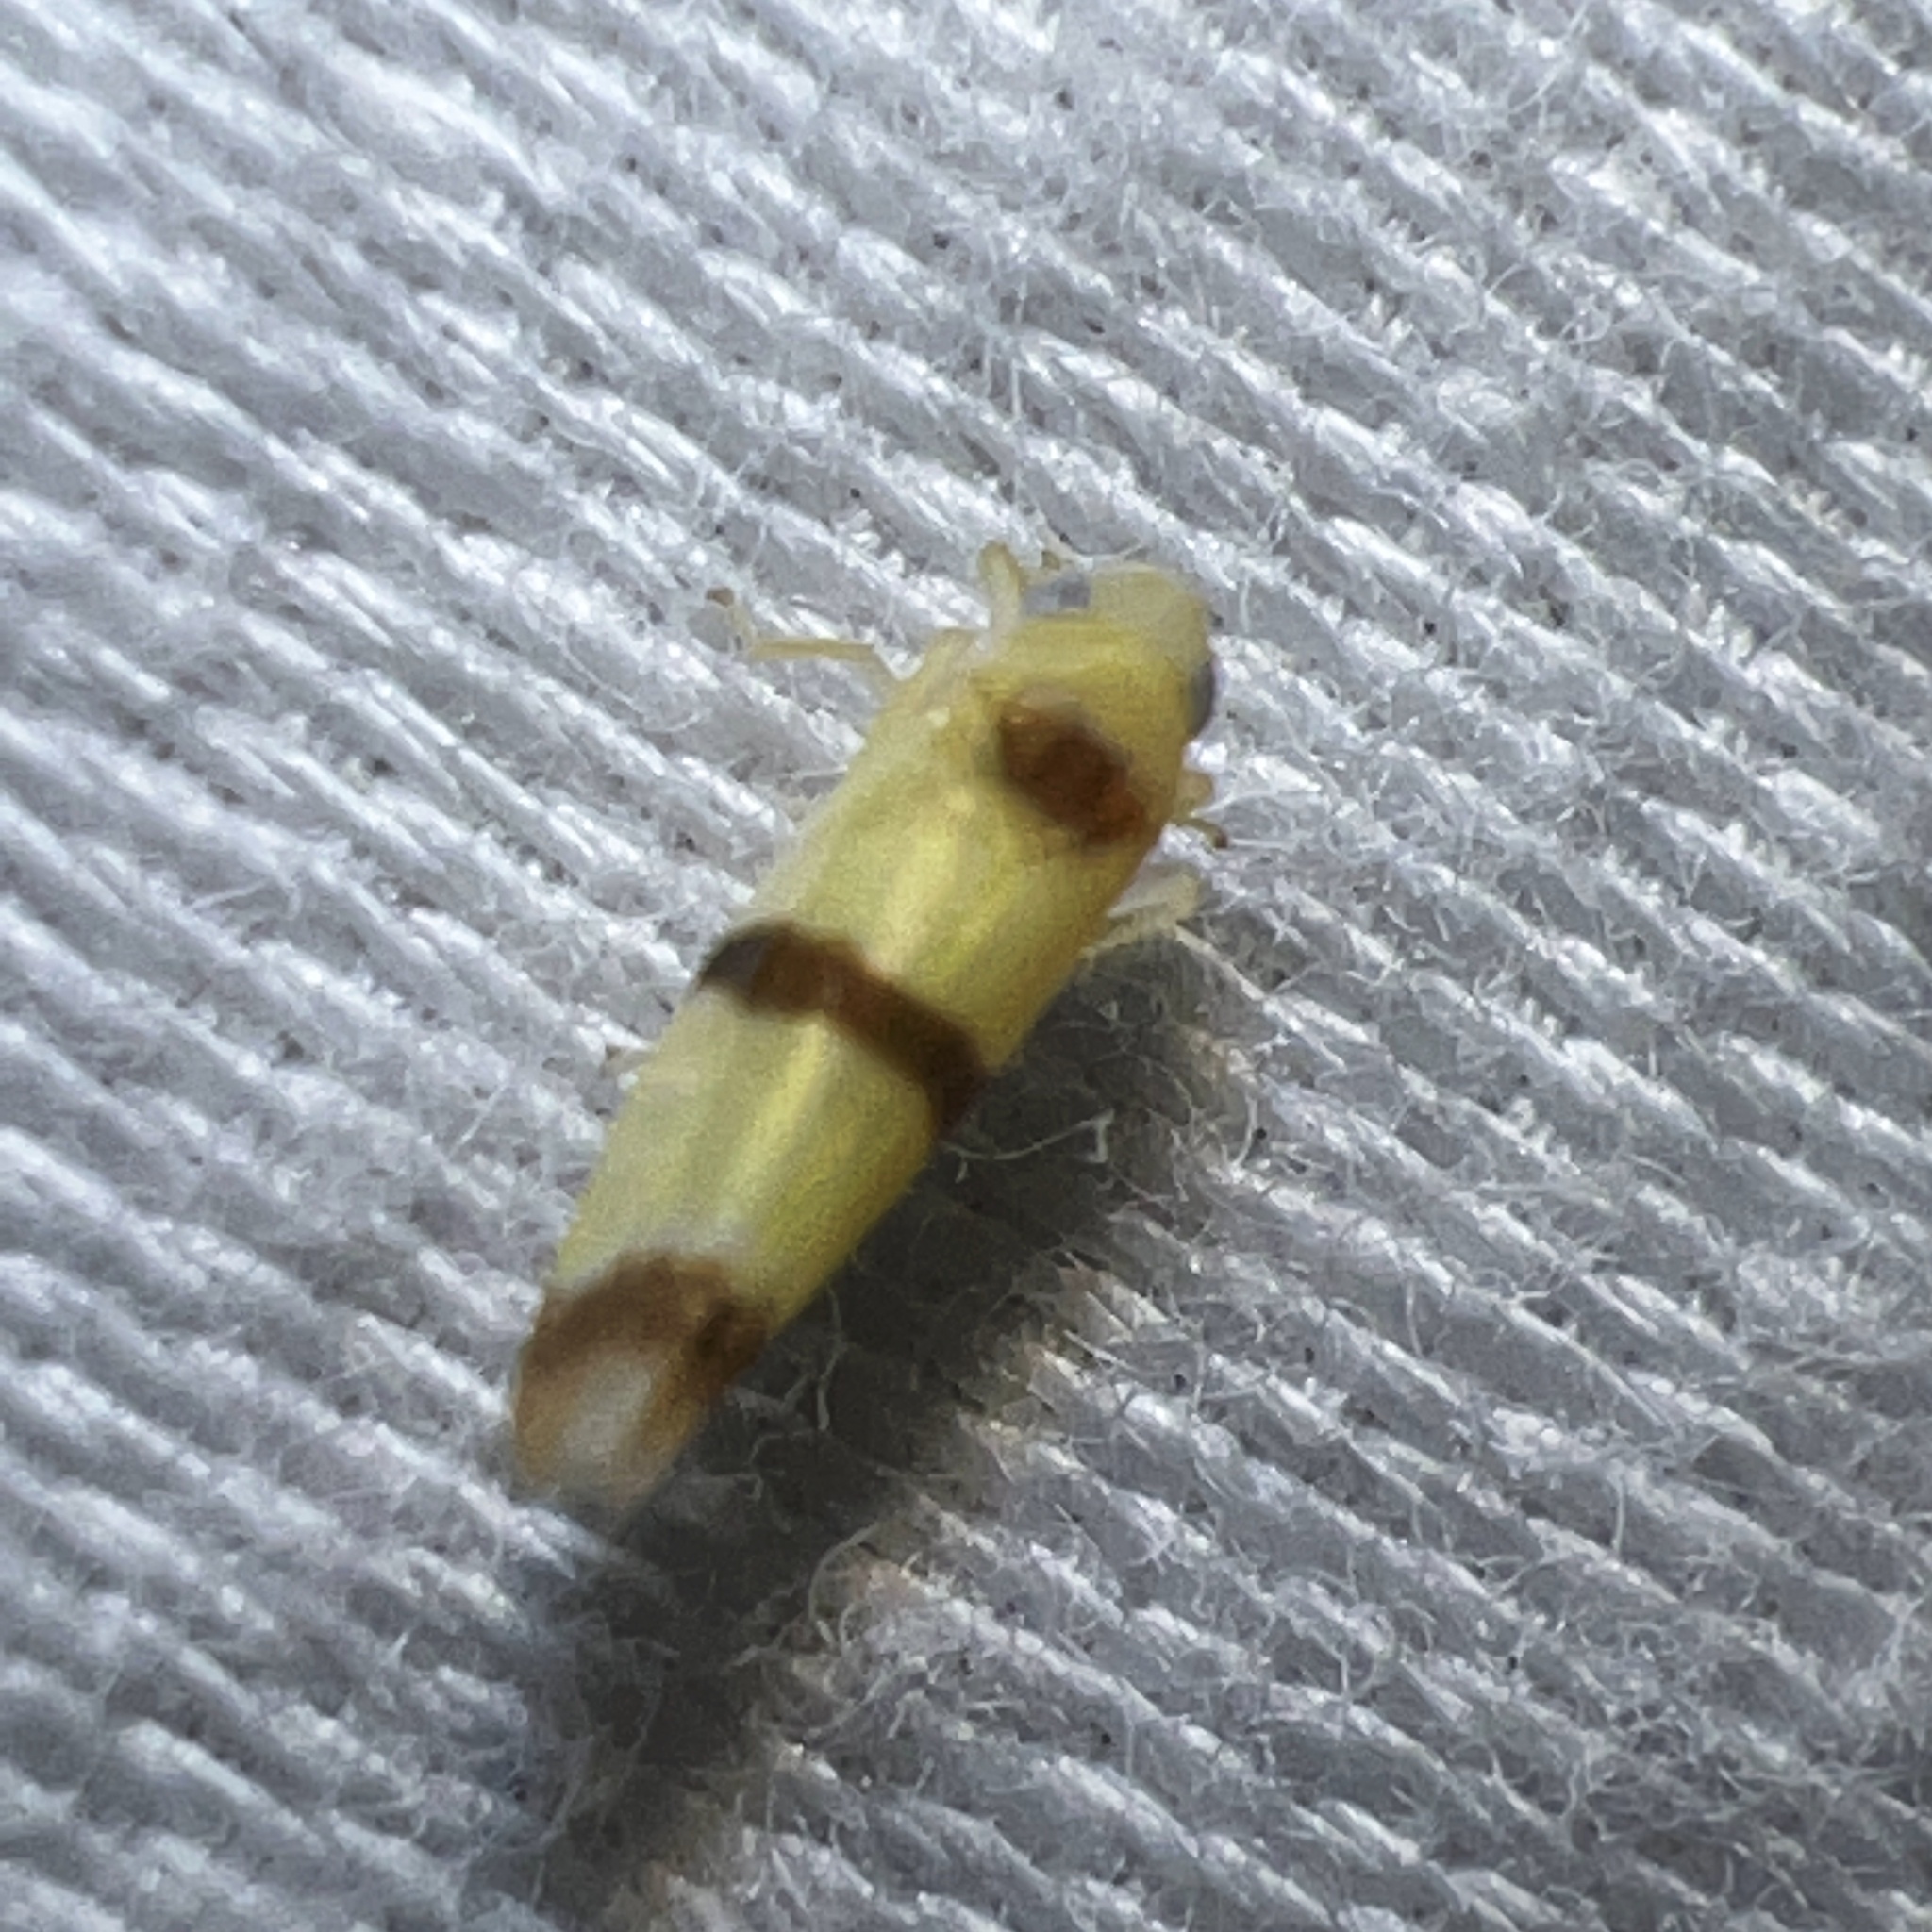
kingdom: Animalia
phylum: Arthropoda
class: Insecta
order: Hemiptera
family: Cicadellidae
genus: Empoa
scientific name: Empoa gillettei
